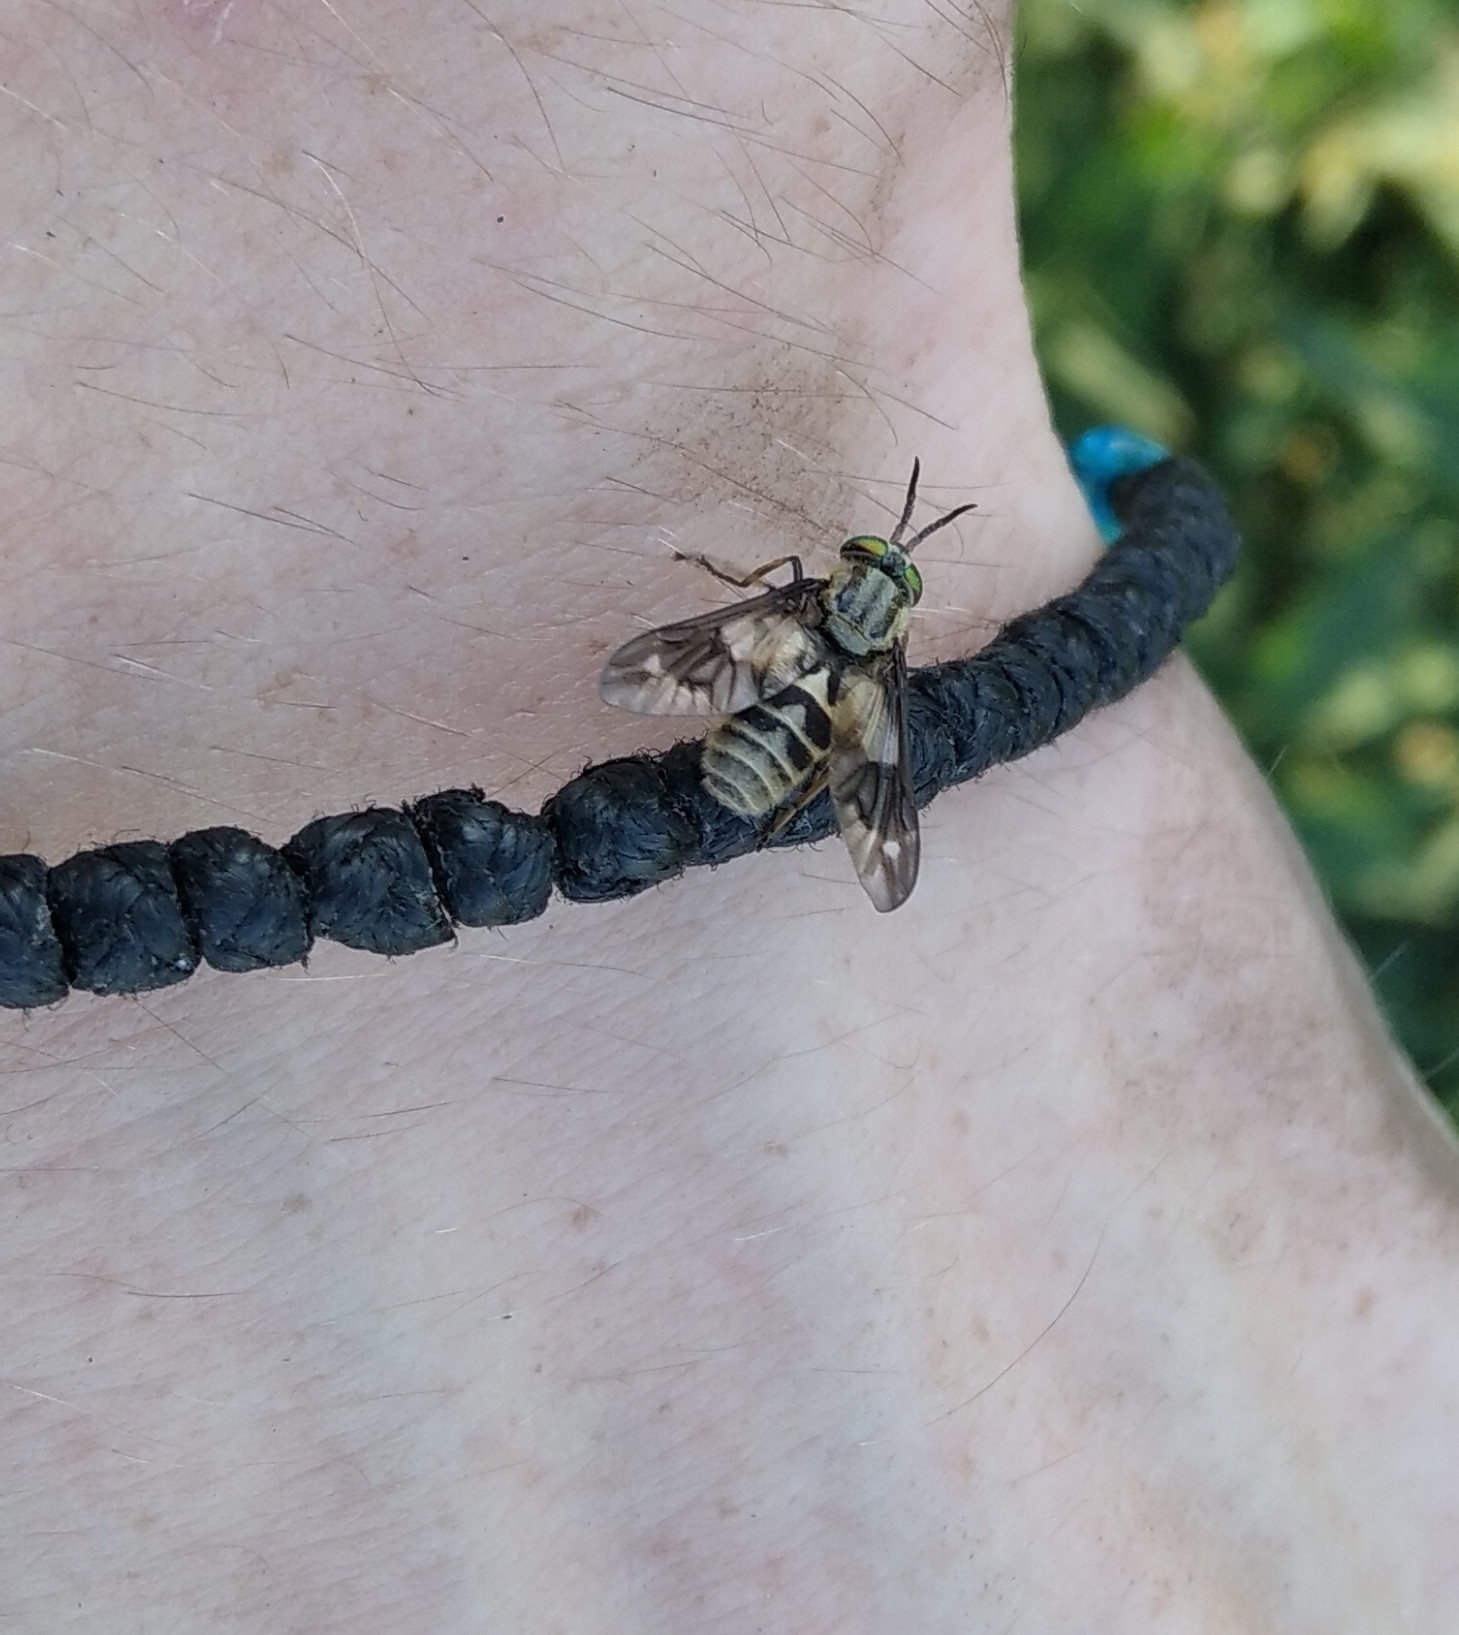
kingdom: Animalia
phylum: Arthropoda
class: Insecta
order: Diptera
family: Tabanidae
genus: Chrysops
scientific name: Chrysops relictus
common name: Twin-lobed deerfly
